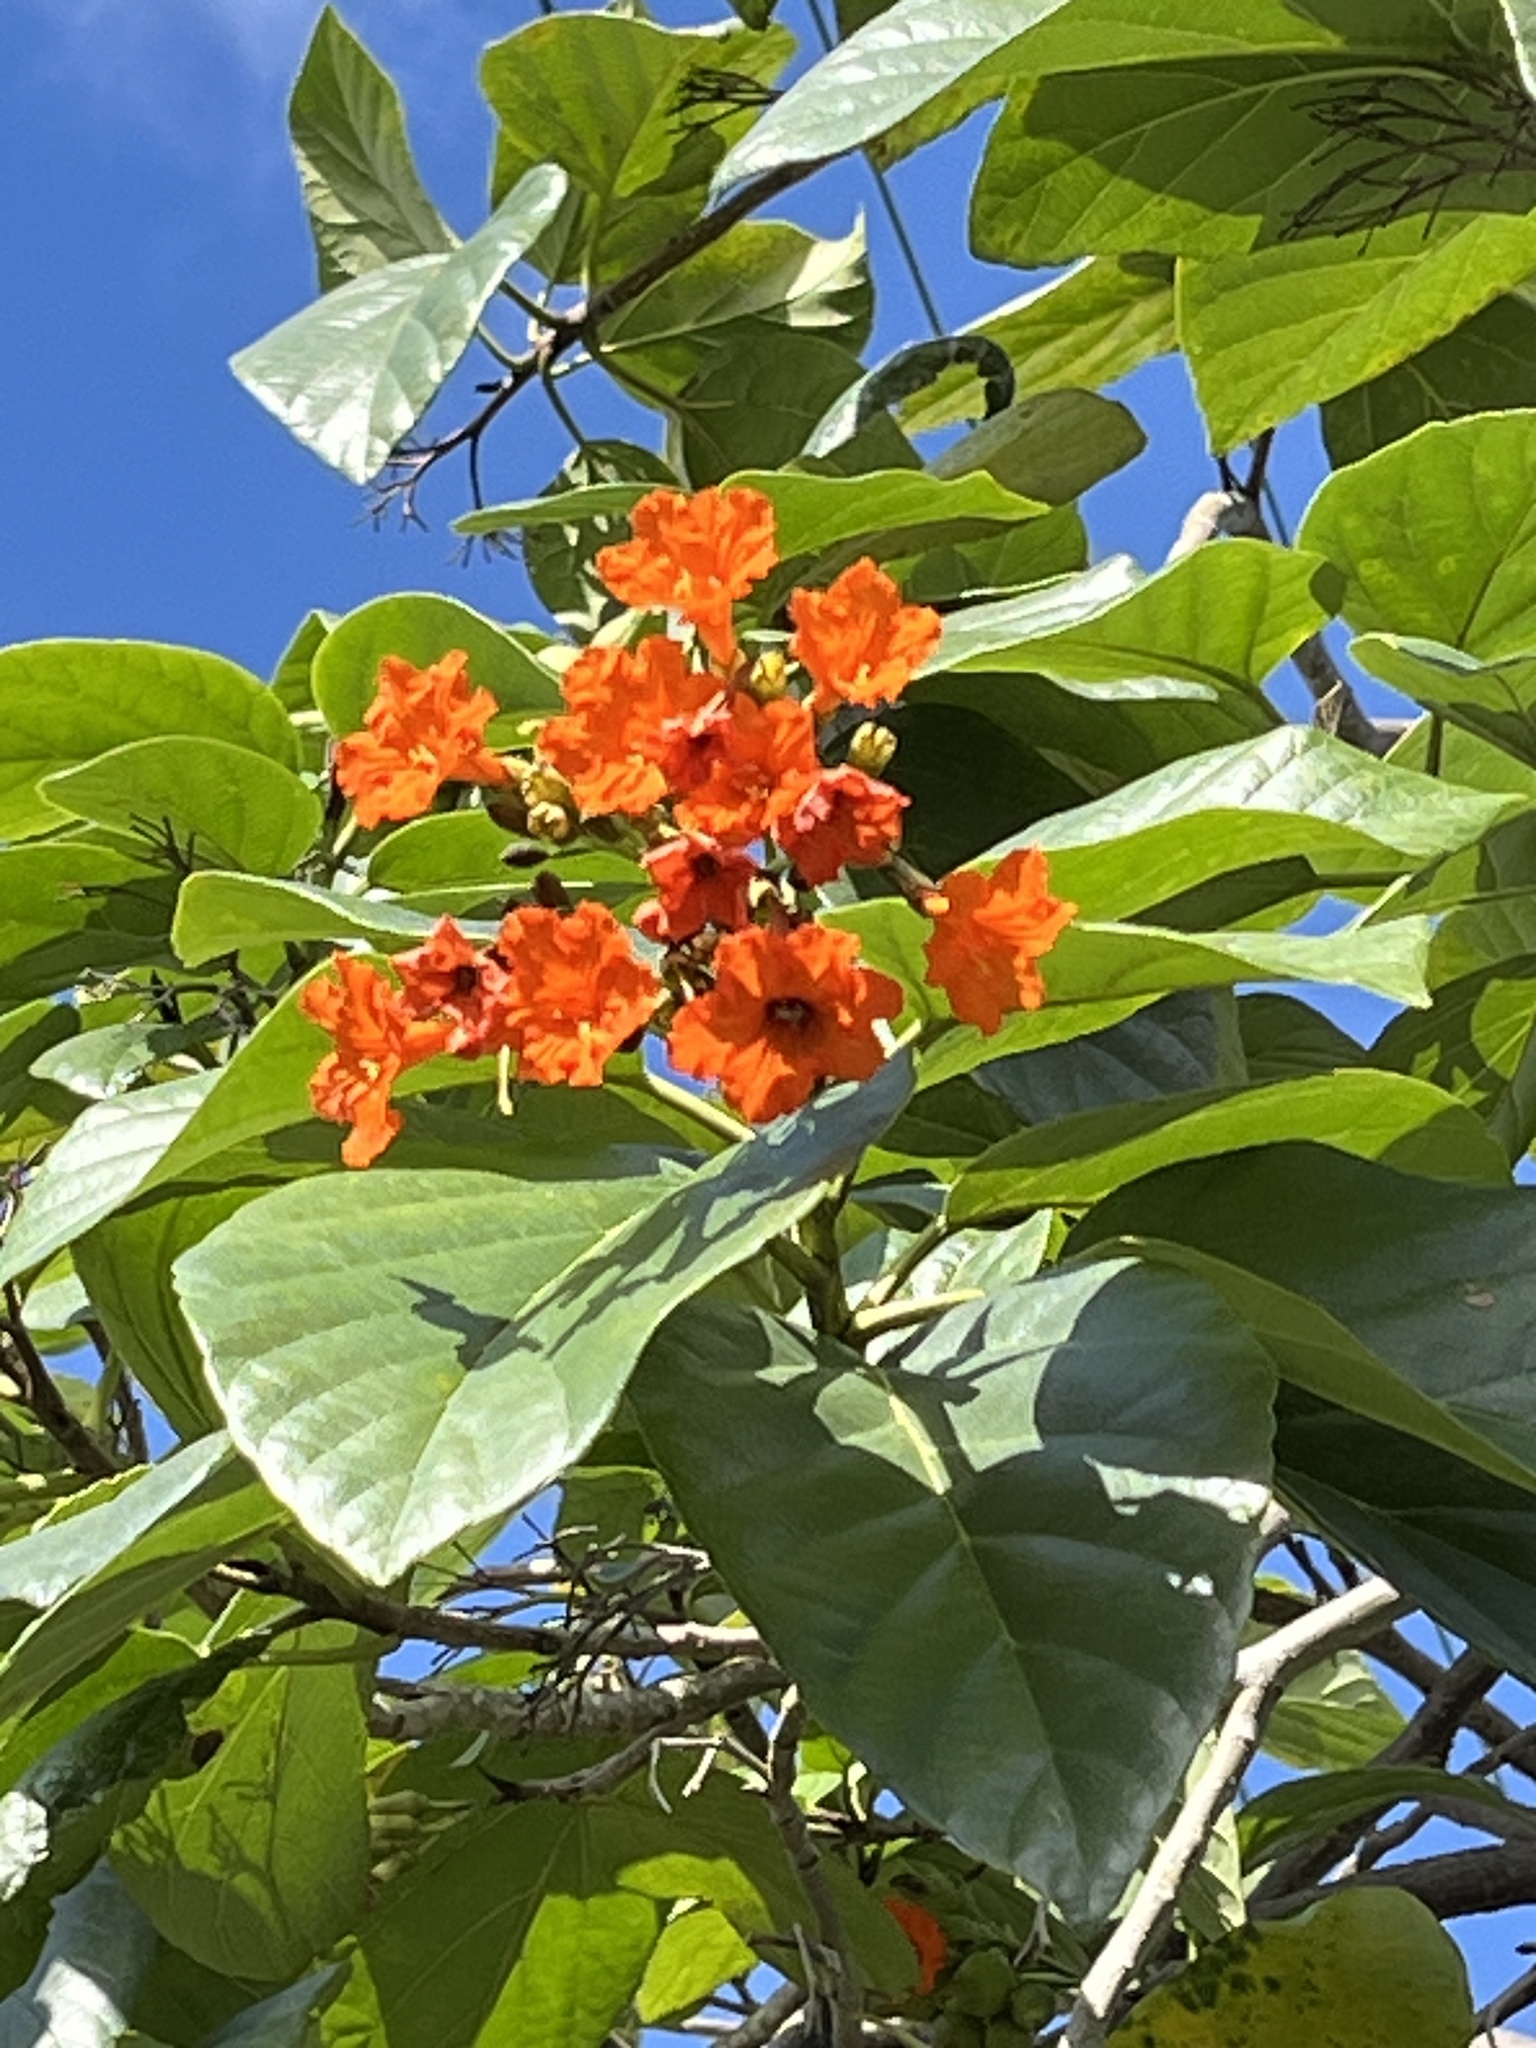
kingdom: Plantae
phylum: Tracheophyta
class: Magnoliopsida
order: Boraginales
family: Cordiaceae
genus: Cordia
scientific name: Cordia sebestena
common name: Largeleaf geigertree
